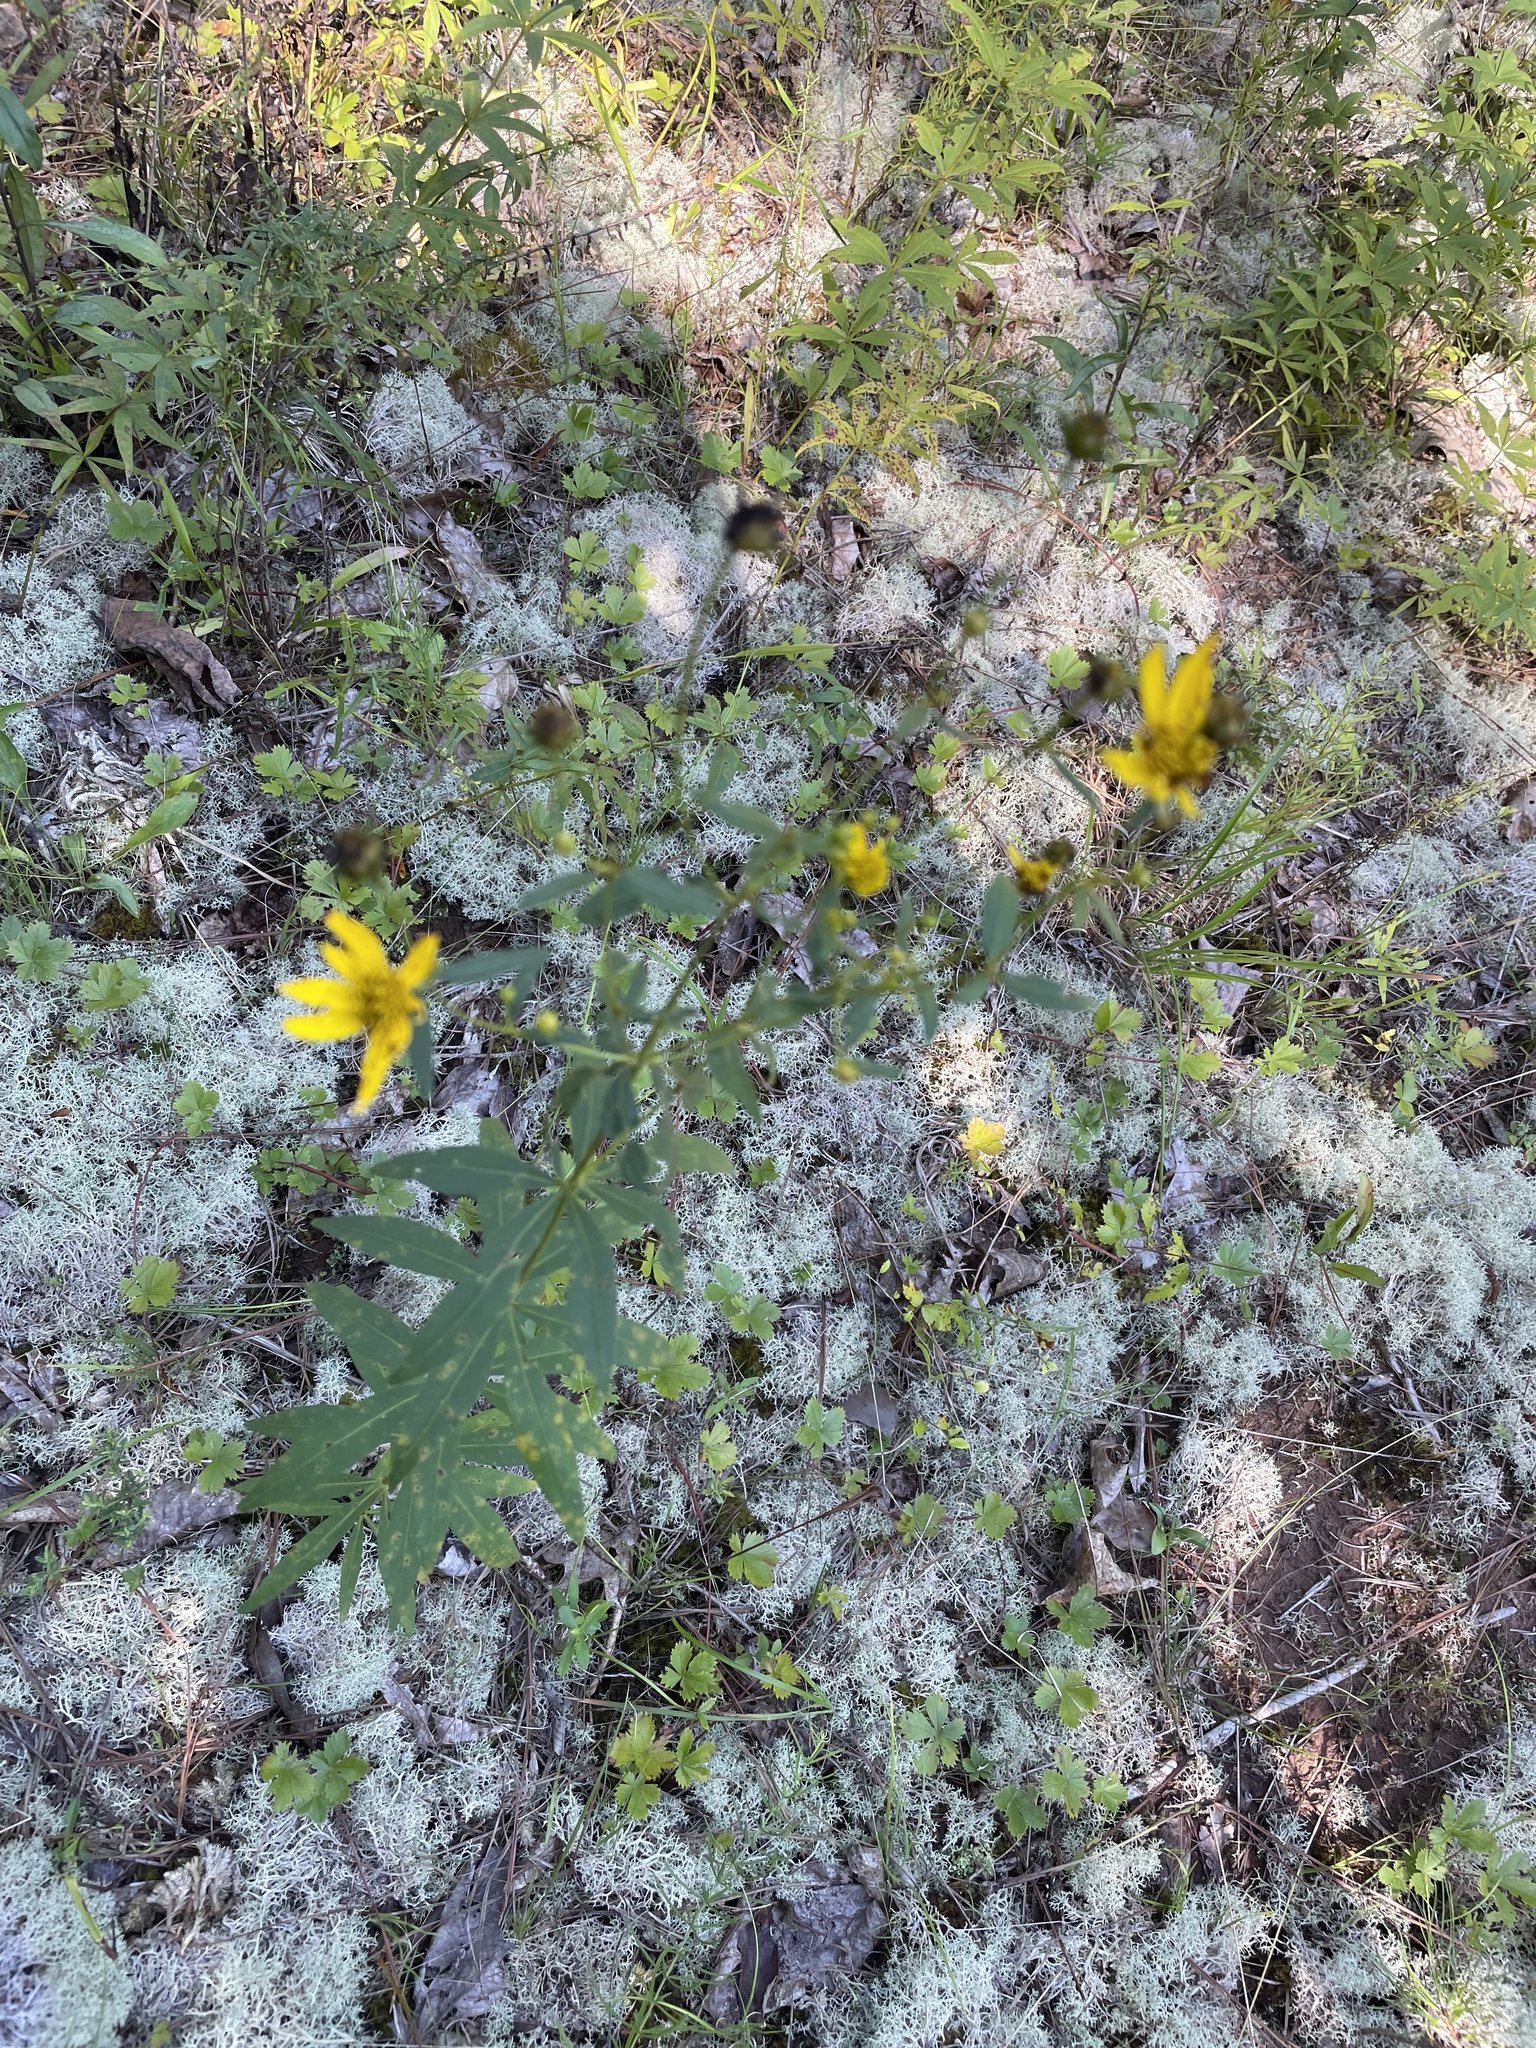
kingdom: Plantae
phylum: Tracheophyta
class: Magnoliopsida
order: Asterales
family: Asteraceae
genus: Coreopsis
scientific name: Coreopsis major
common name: Forest tickseed
